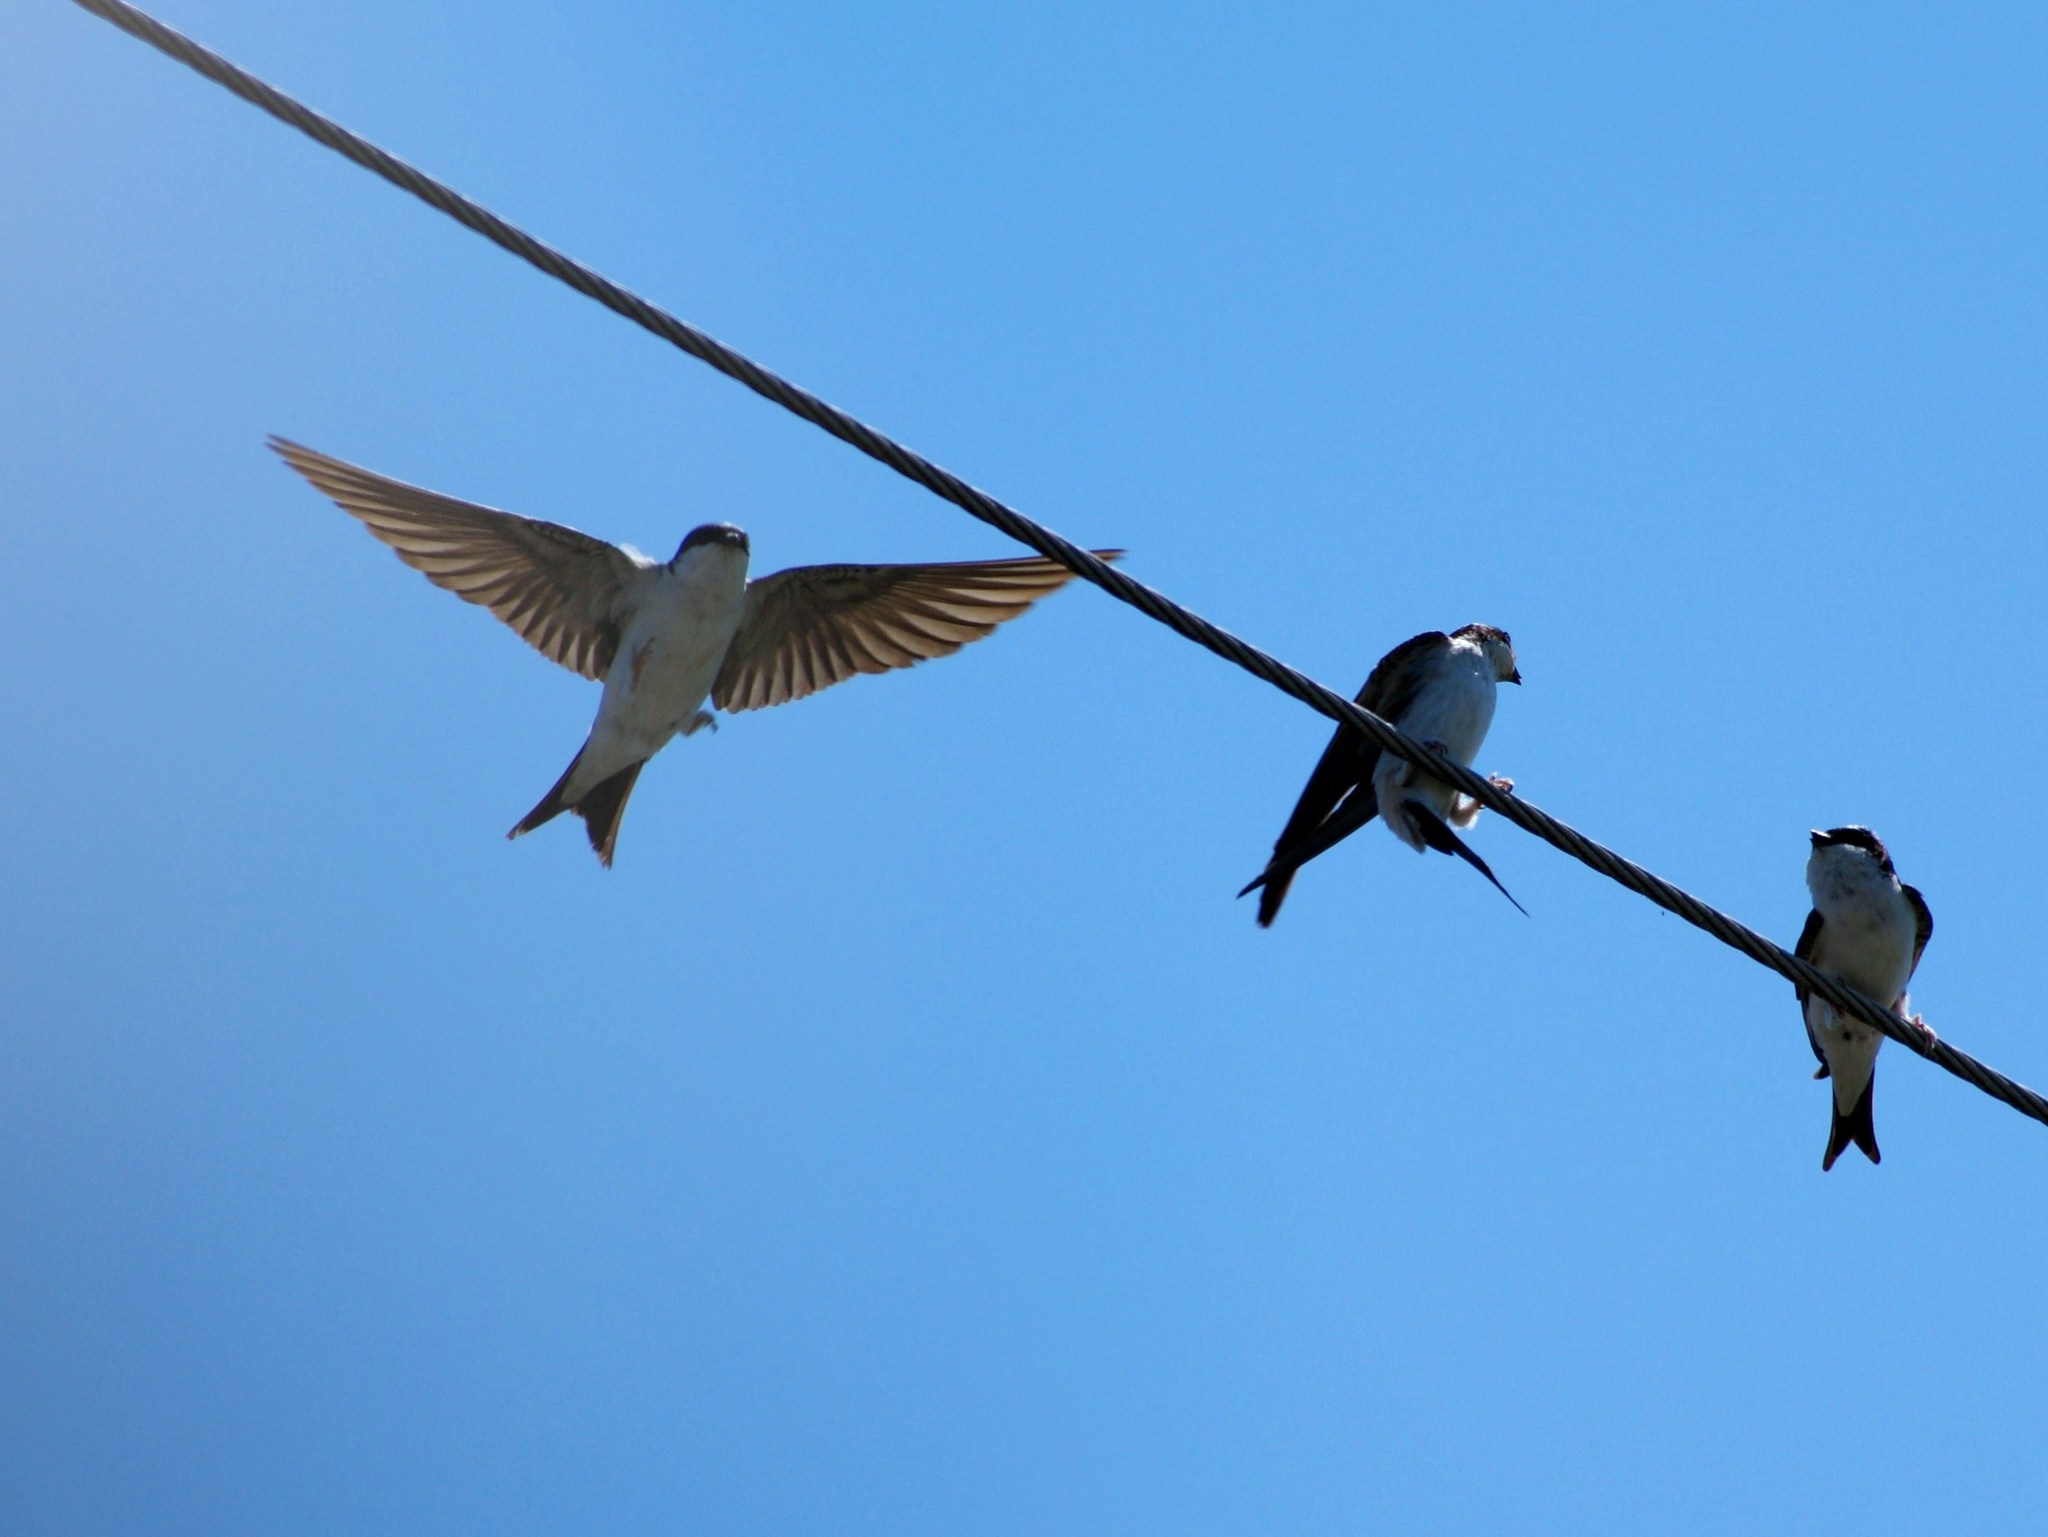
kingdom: Animalia
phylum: Chordata
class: Aves
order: Passeriformes
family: Hirundinidae
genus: Delichon
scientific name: Delichon urbicum
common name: Common house martin
